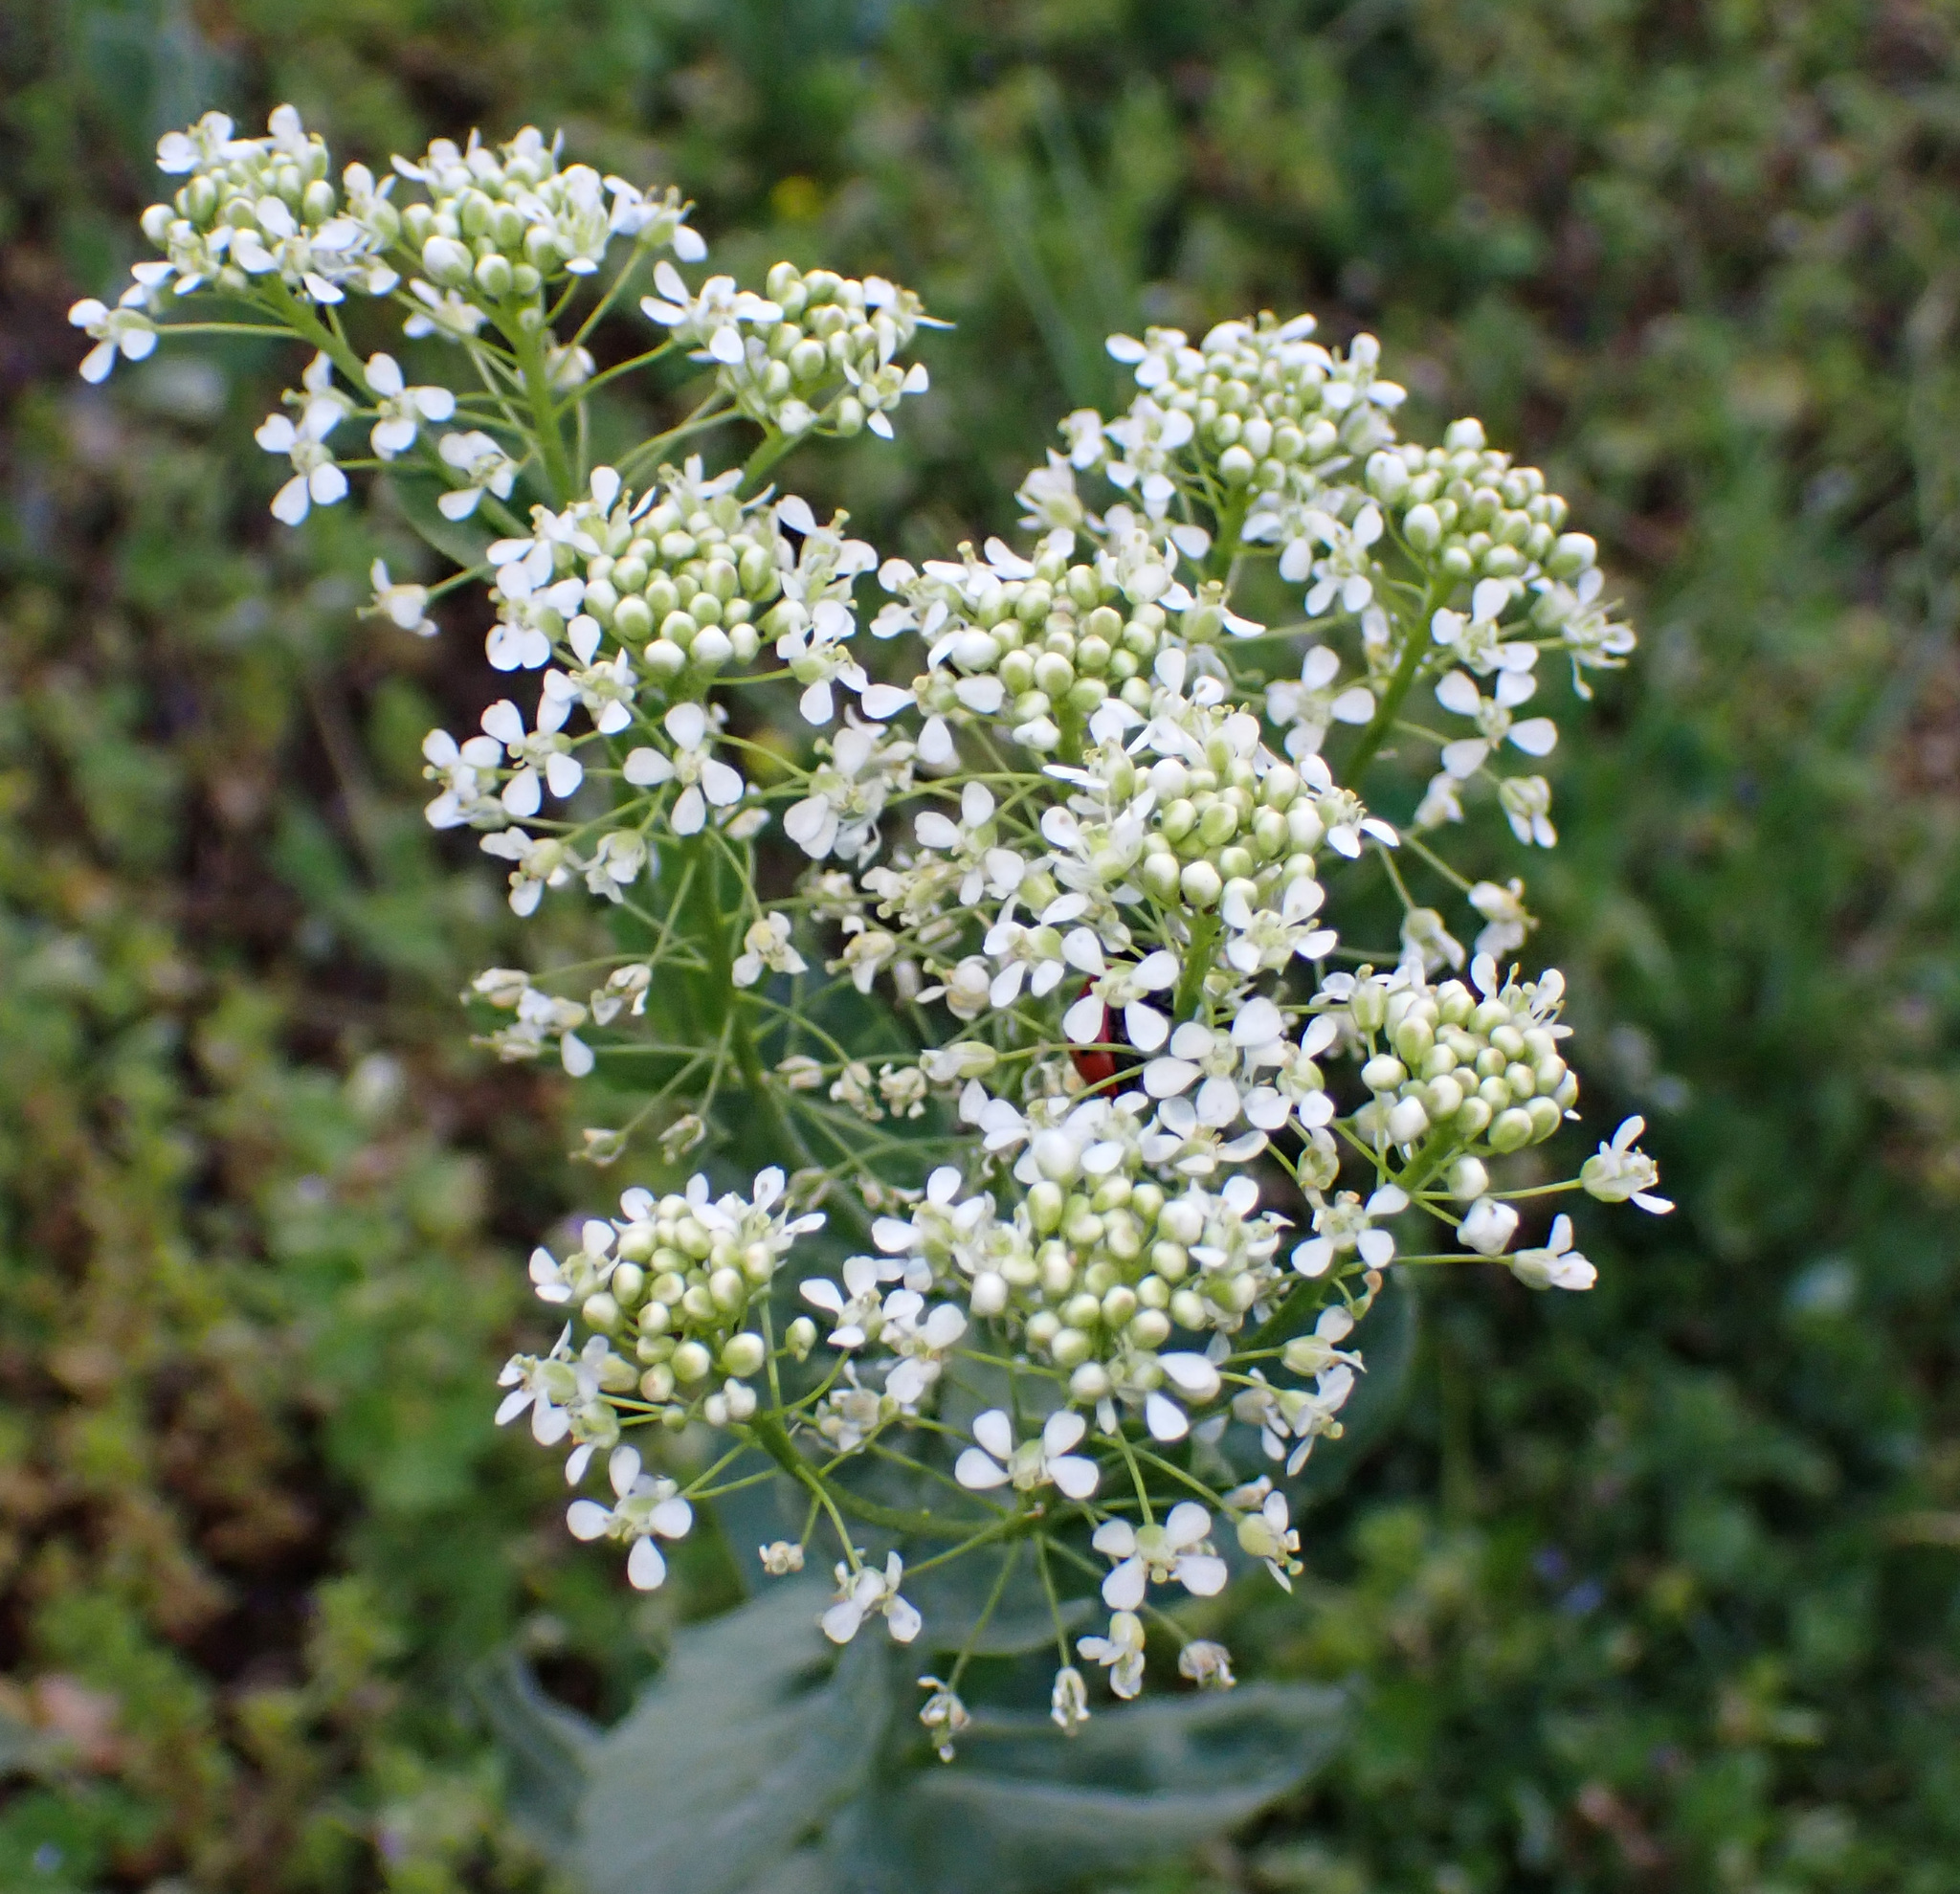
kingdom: Plantae
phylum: Tracheophyta
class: Magnoliopsida
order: Brassicales
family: Brassicaceae
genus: Lepidium
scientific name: Lepidium draba
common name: Hoary cress
